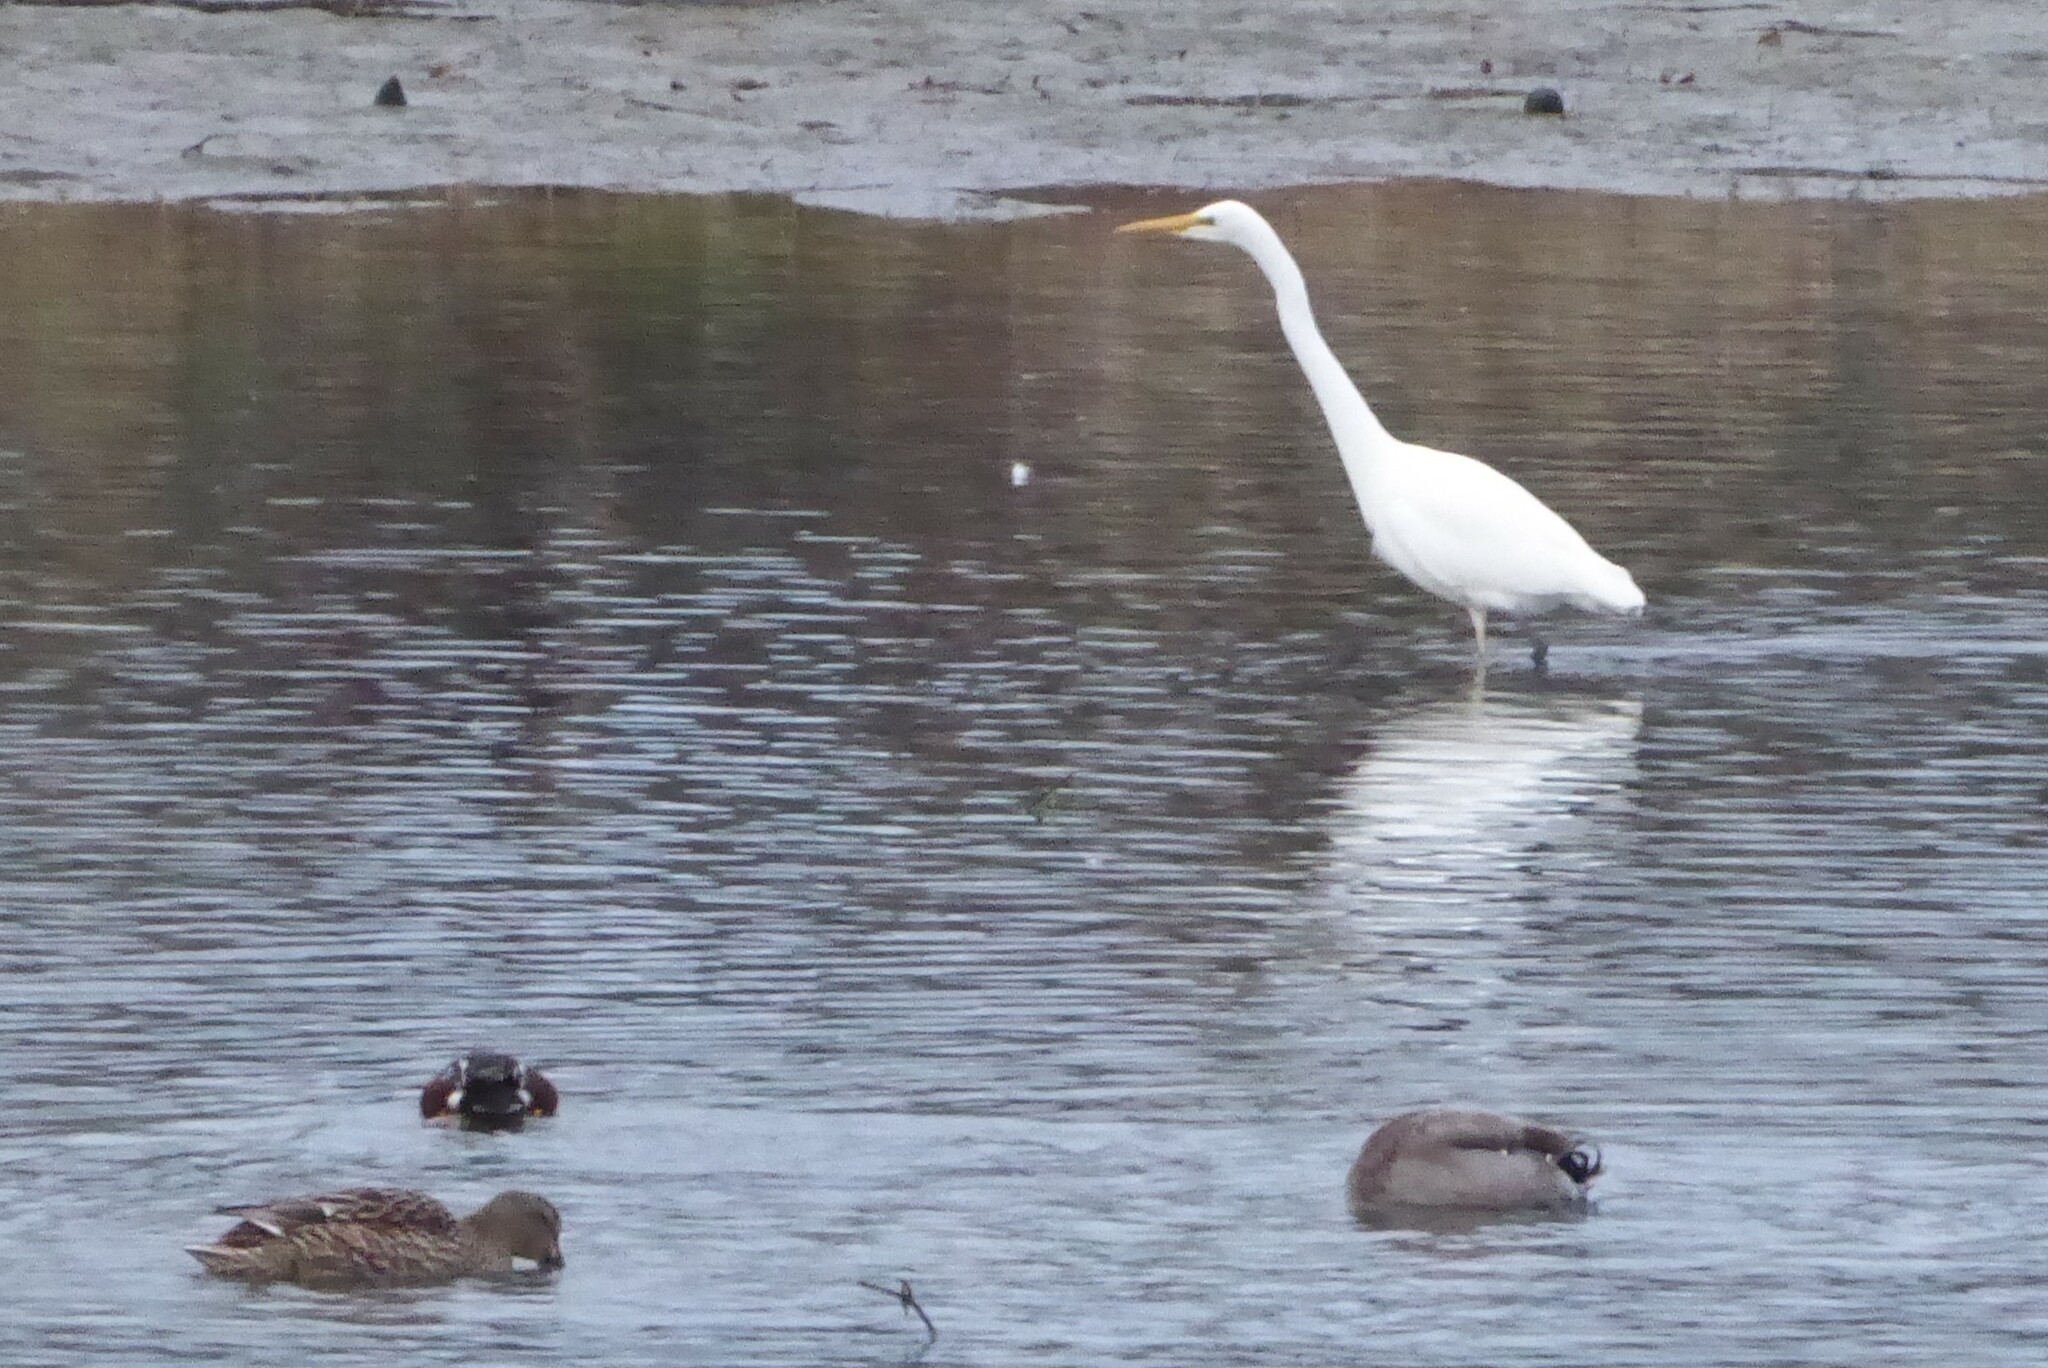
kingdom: Animalia
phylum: Chordata
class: Aves
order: Pelecaniformes
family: Ardeidae
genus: Ardea
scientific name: Ardea modesta
